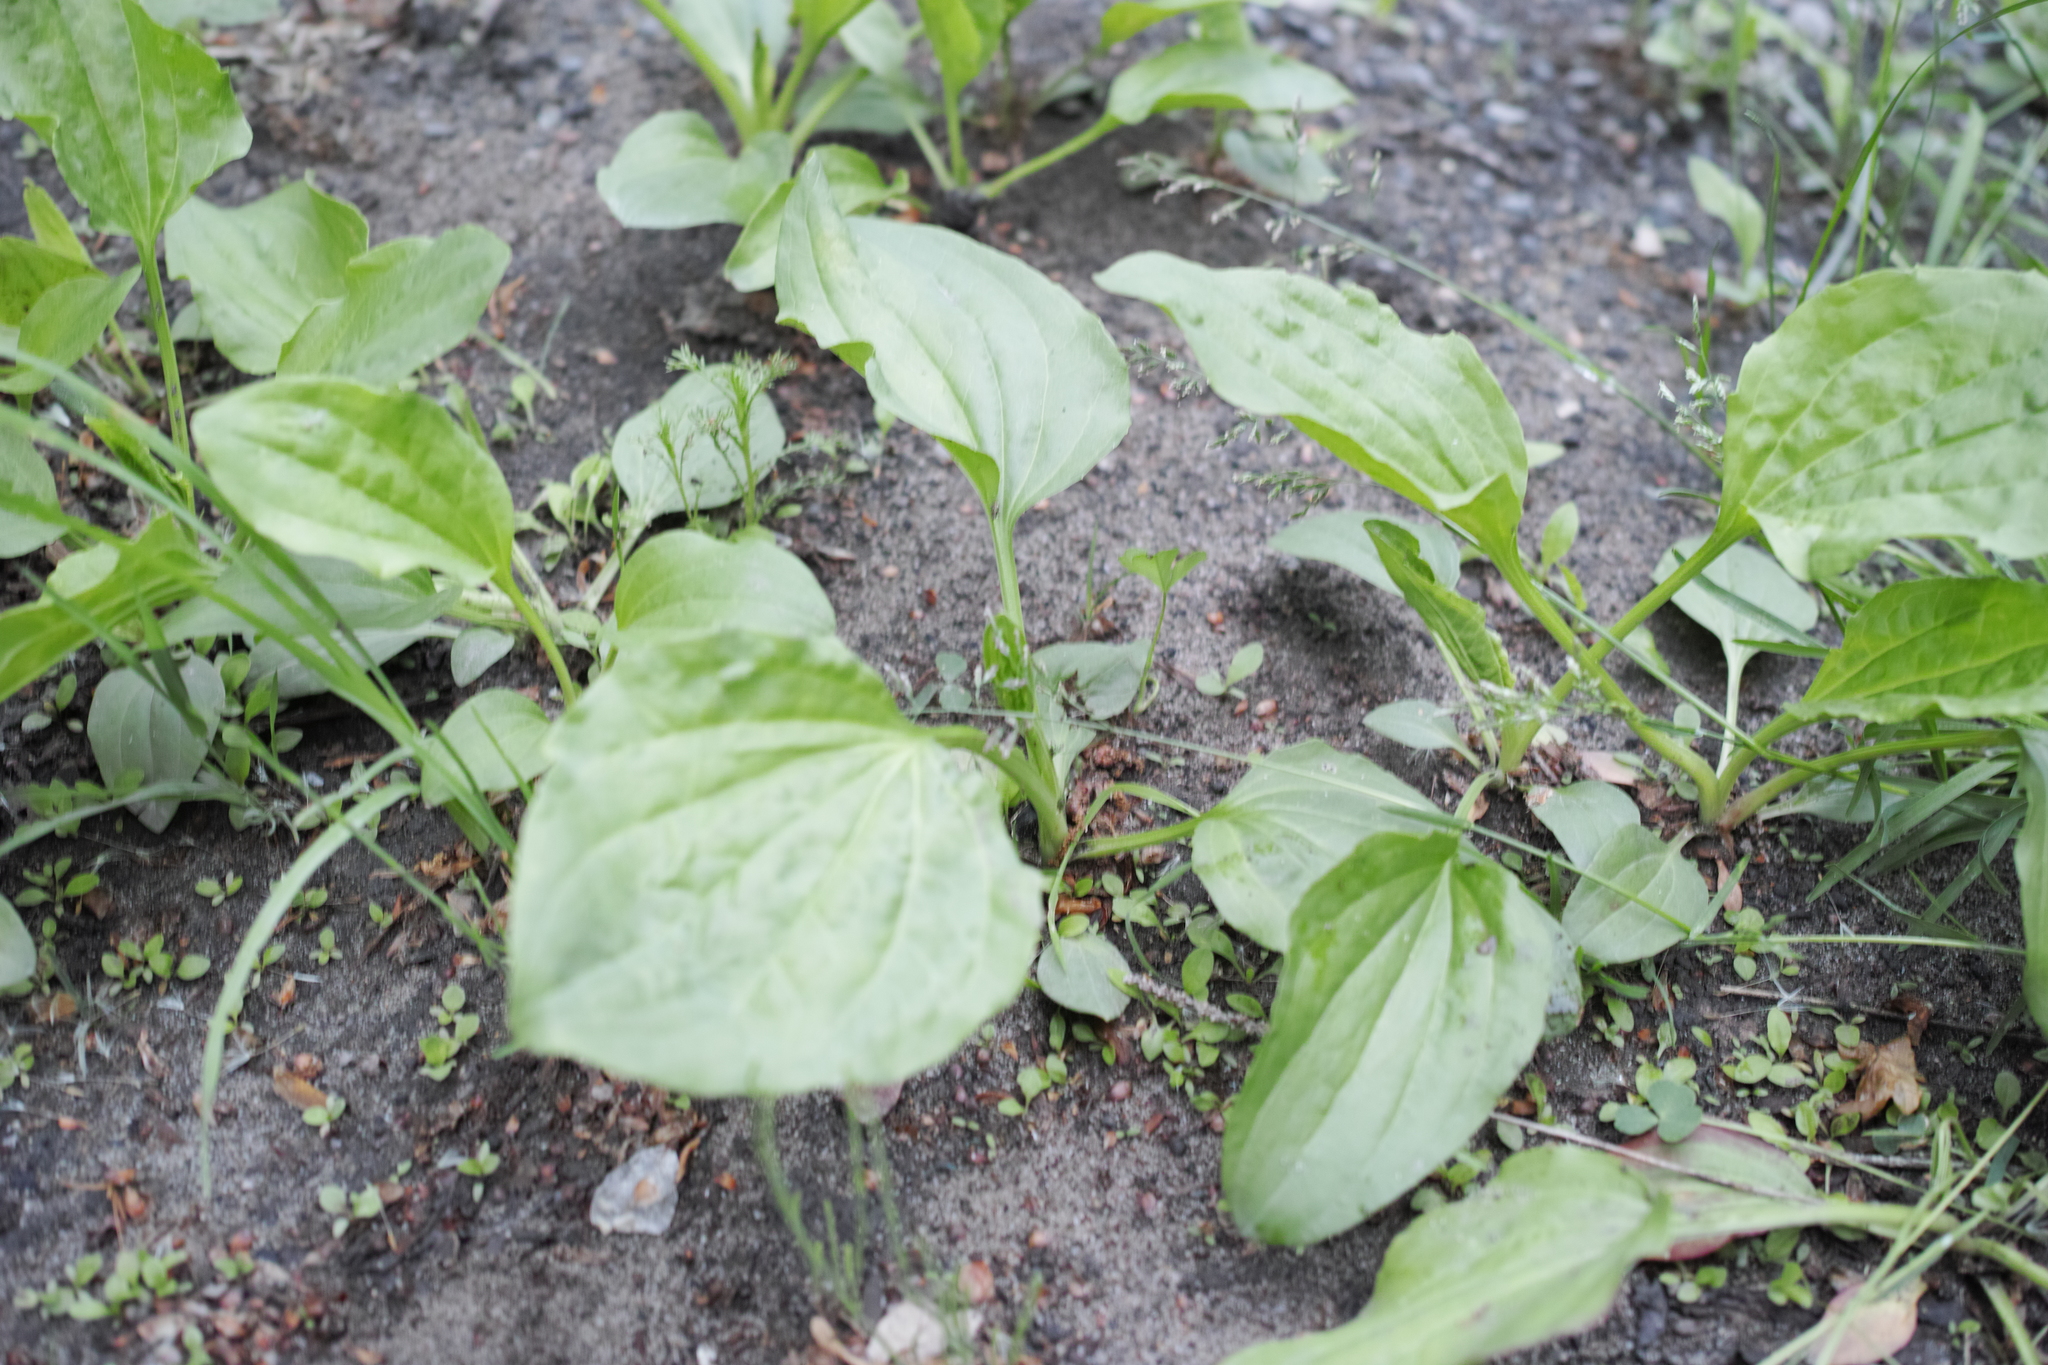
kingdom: Plantae
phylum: Tracheophyta
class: Magnoliopsida
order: Lamiales
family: Plantaginaceae
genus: Plantago
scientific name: Plantago major
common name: Common plantain
